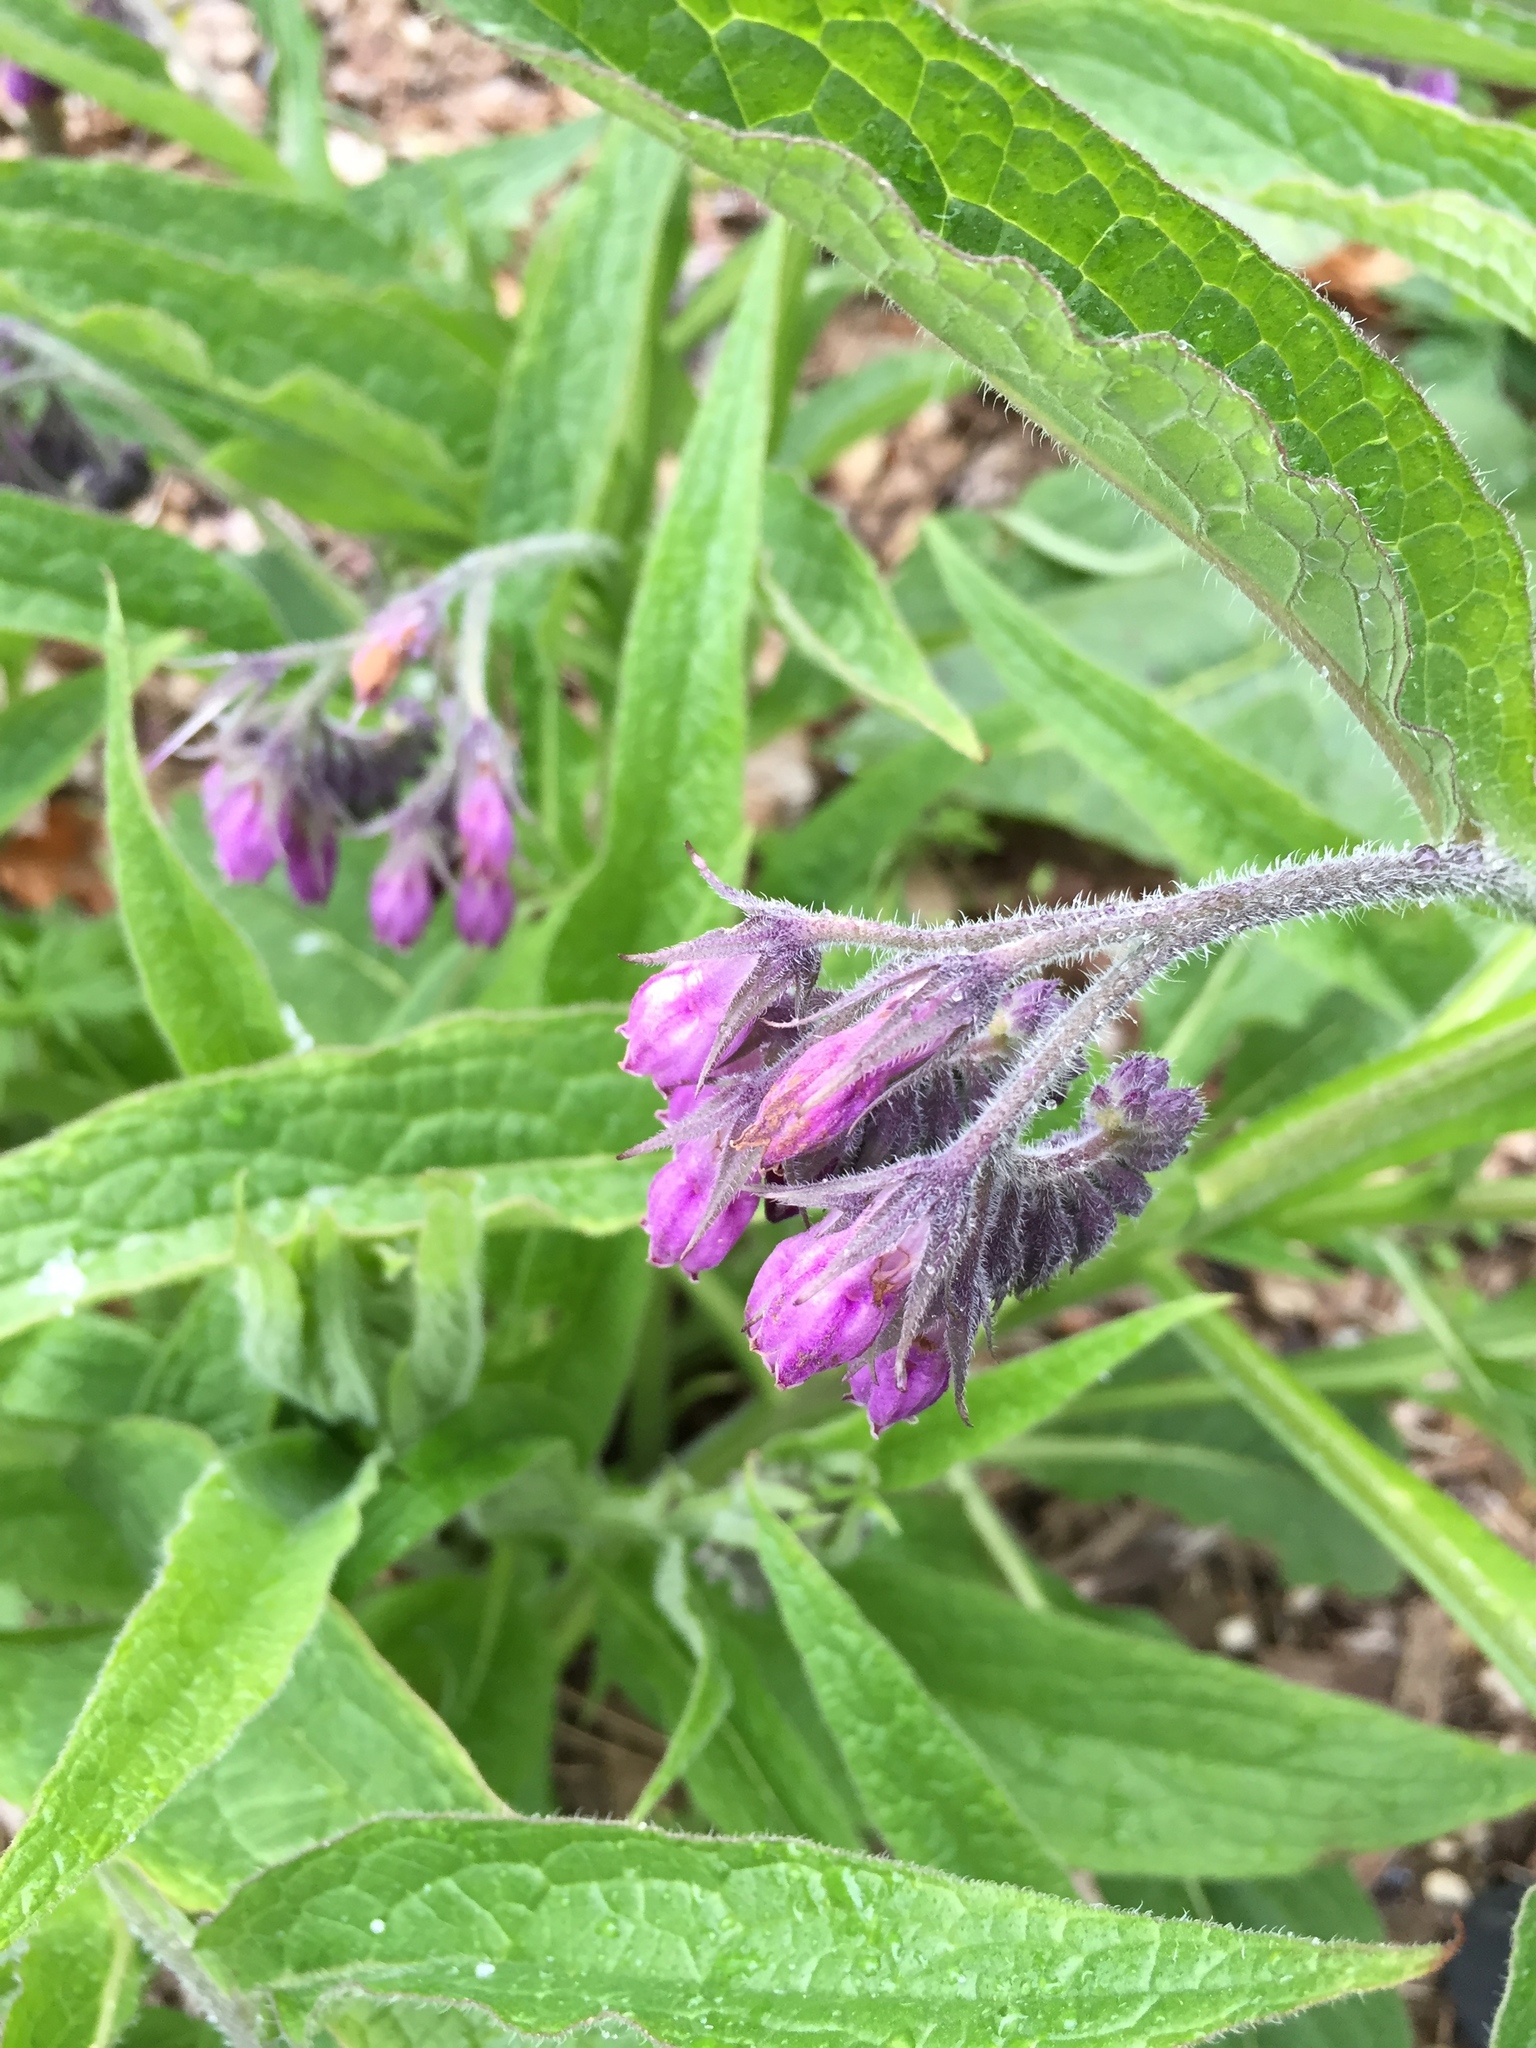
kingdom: Plantae
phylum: Tracheophyta
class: Magnoliopsida
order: Boraginales
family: Boraginaceae
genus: Symphytum
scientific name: Symphytum officinale
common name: Common comfrey
